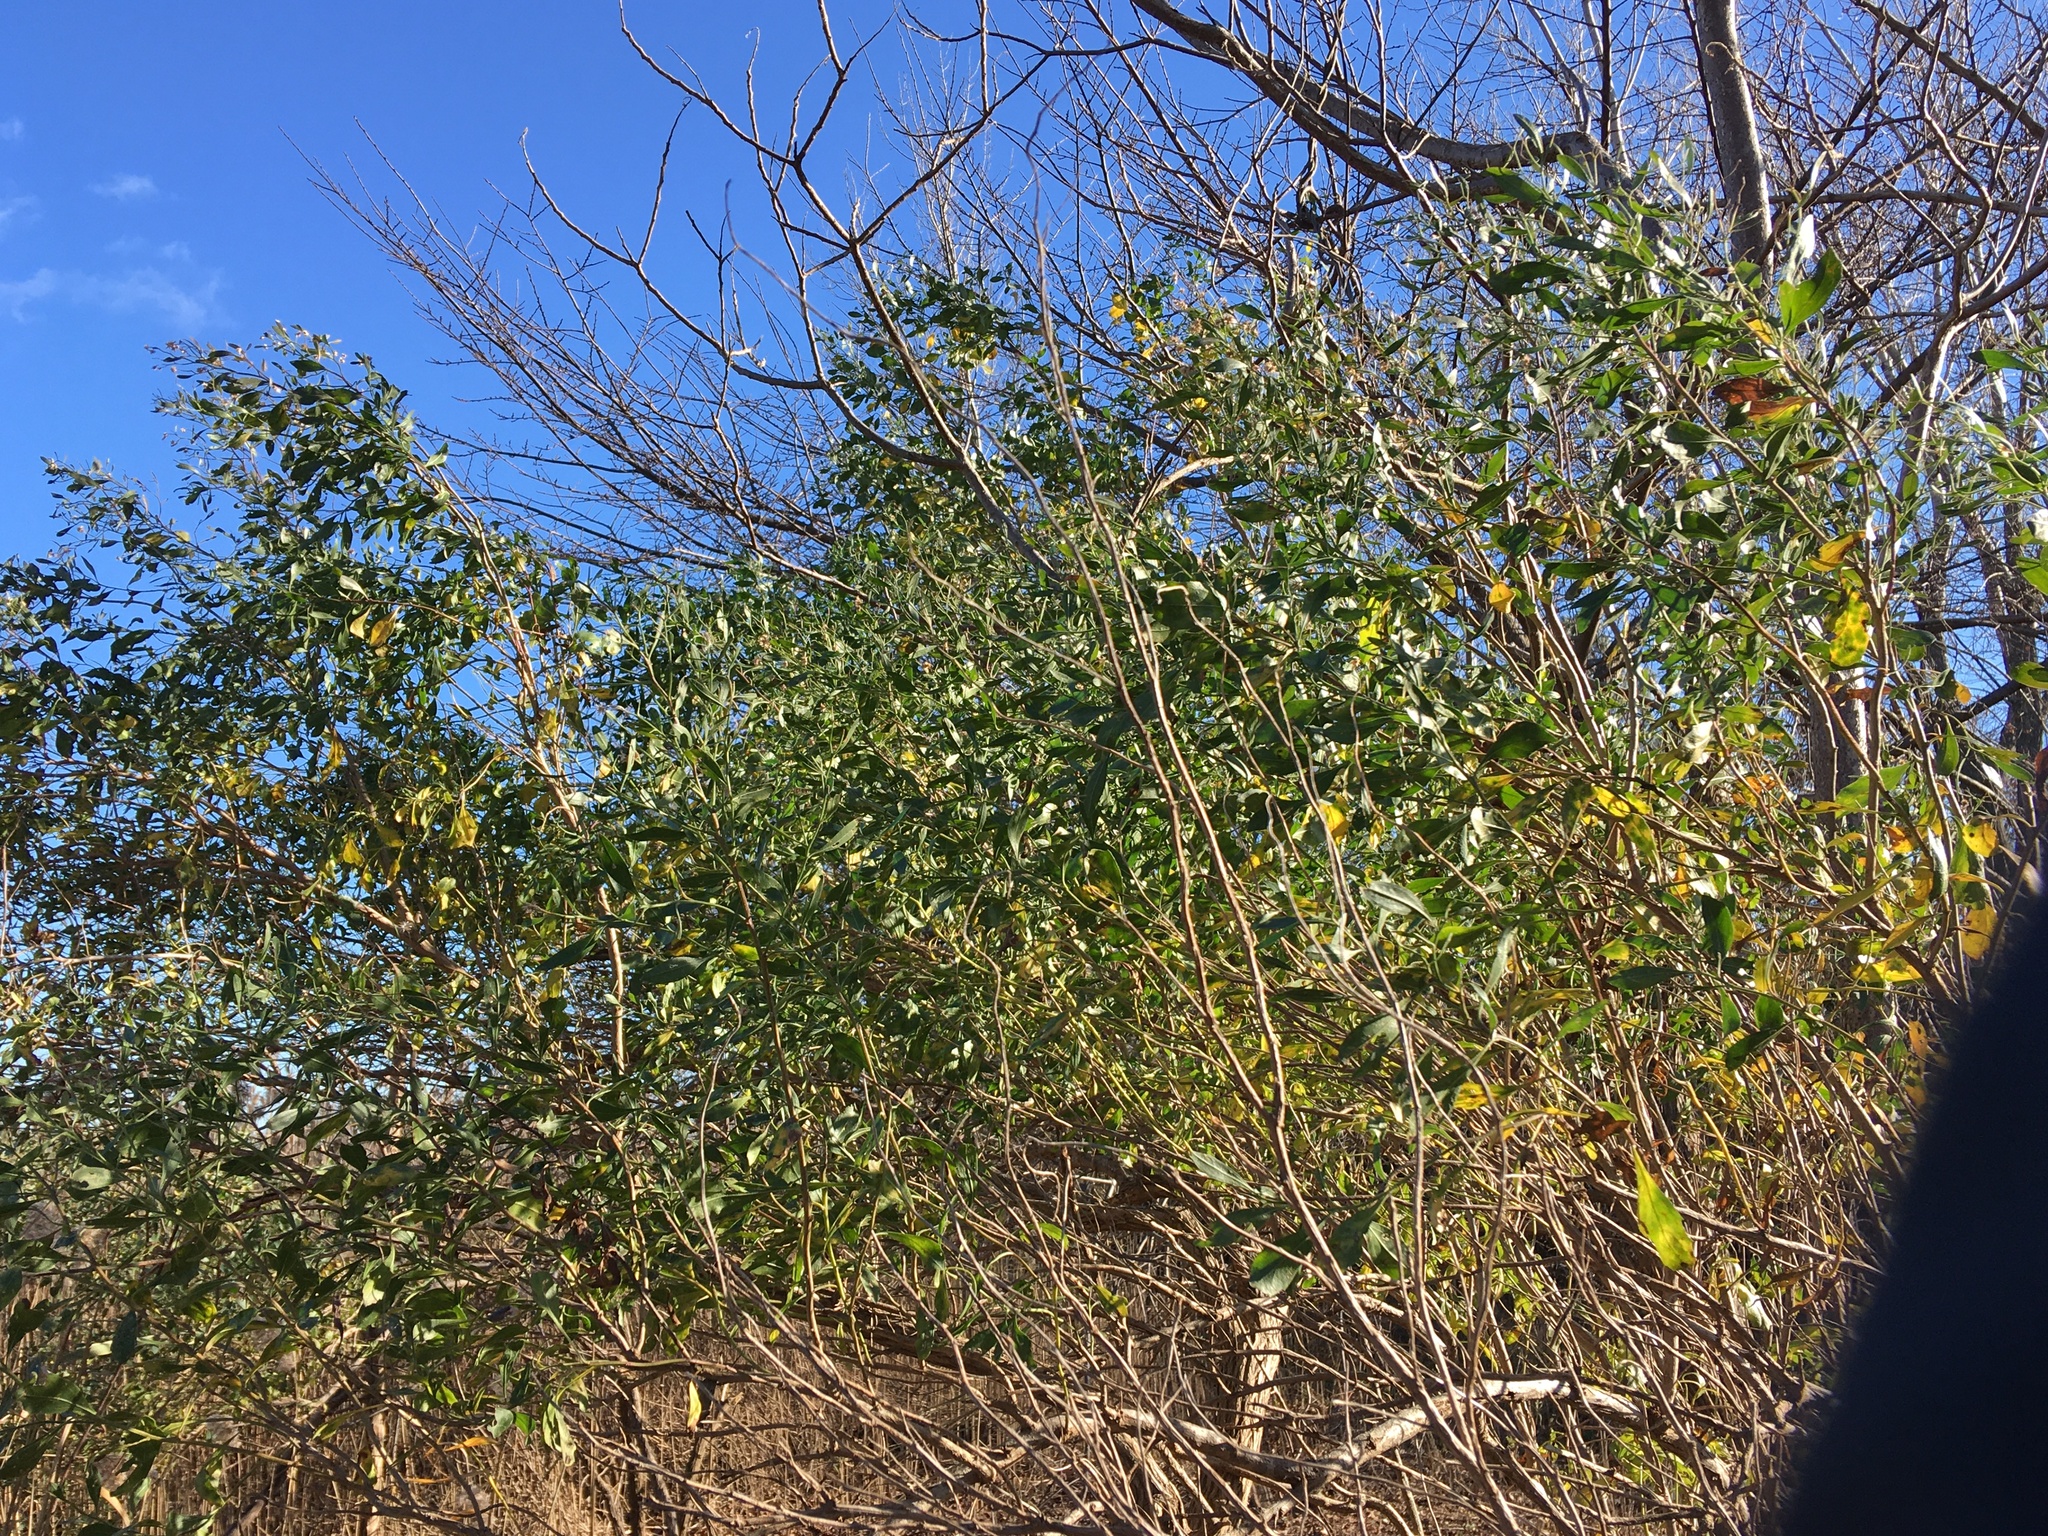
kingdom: Plantae
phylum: Tracheophyta
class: Magnoliopsida
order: Asterales
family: Asteraceae
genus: Baccharis
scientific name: Baccharis halimifolia
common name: Eastern baccharis
